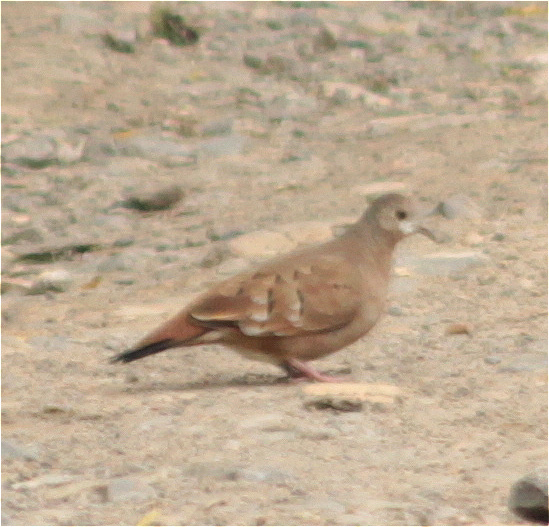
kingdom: Animalia
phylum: Chordata
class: Aves
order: Columbiformes
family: Columbidae
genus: Columbina
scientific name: Columbina talpacoti
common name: Ruddy ground dove
